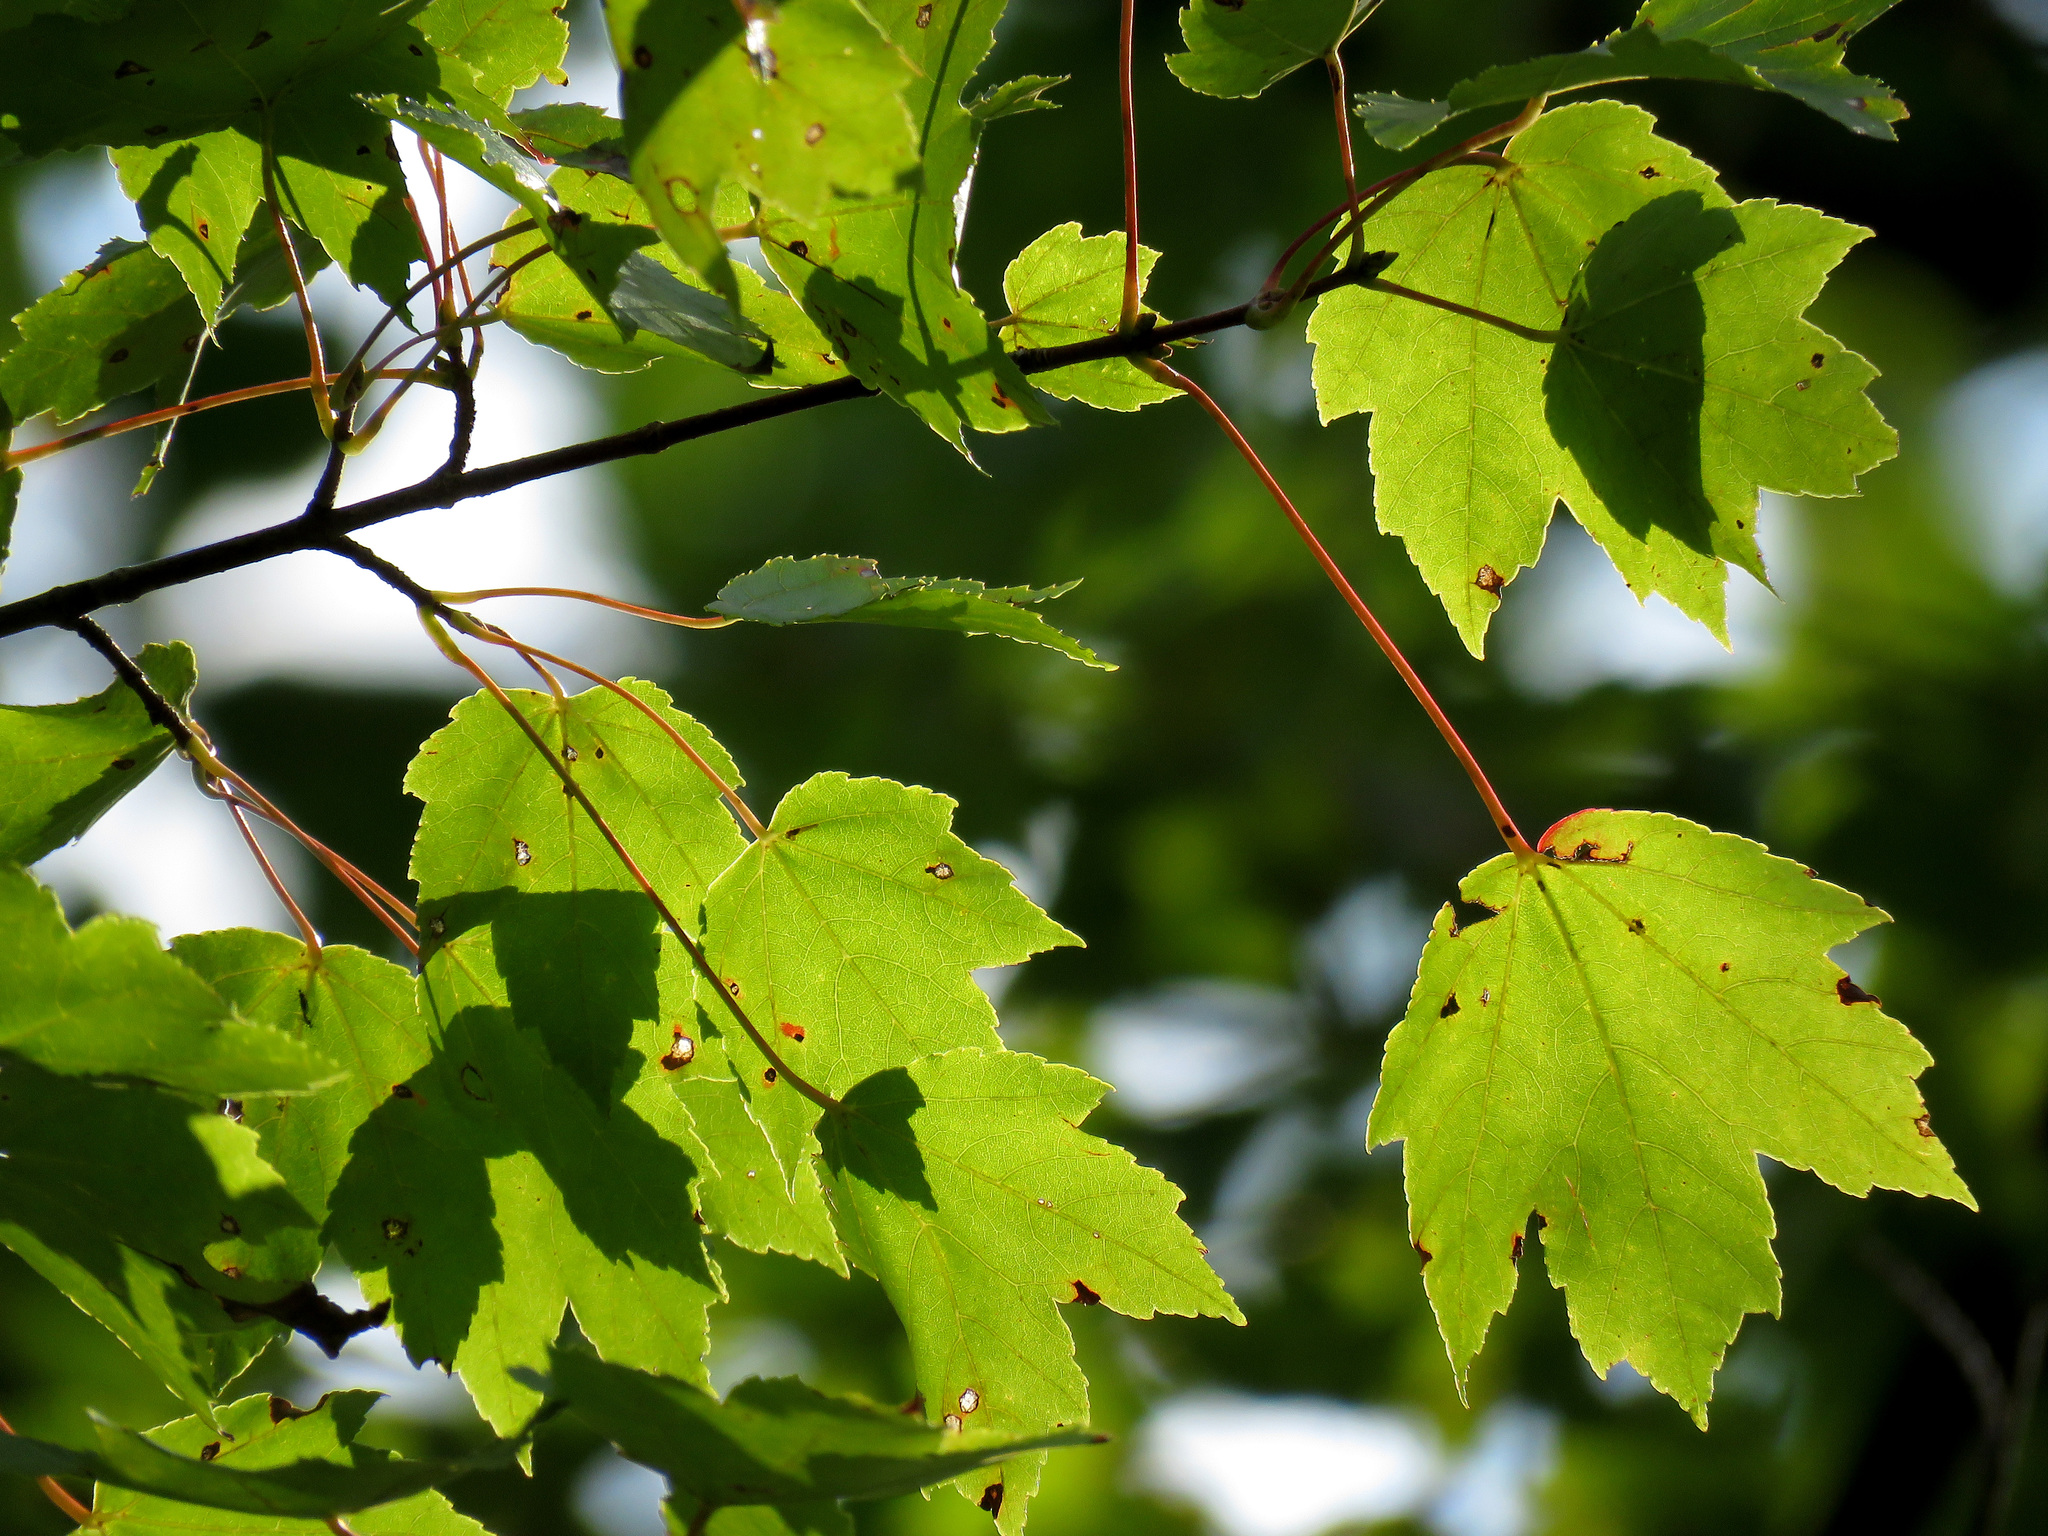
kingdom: Plantae
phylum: Tracheophyta
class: Magnoliopsida
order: Sapindales
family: Sapindaceae
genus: Acer
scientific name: Acer rubrum
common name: Red maple
